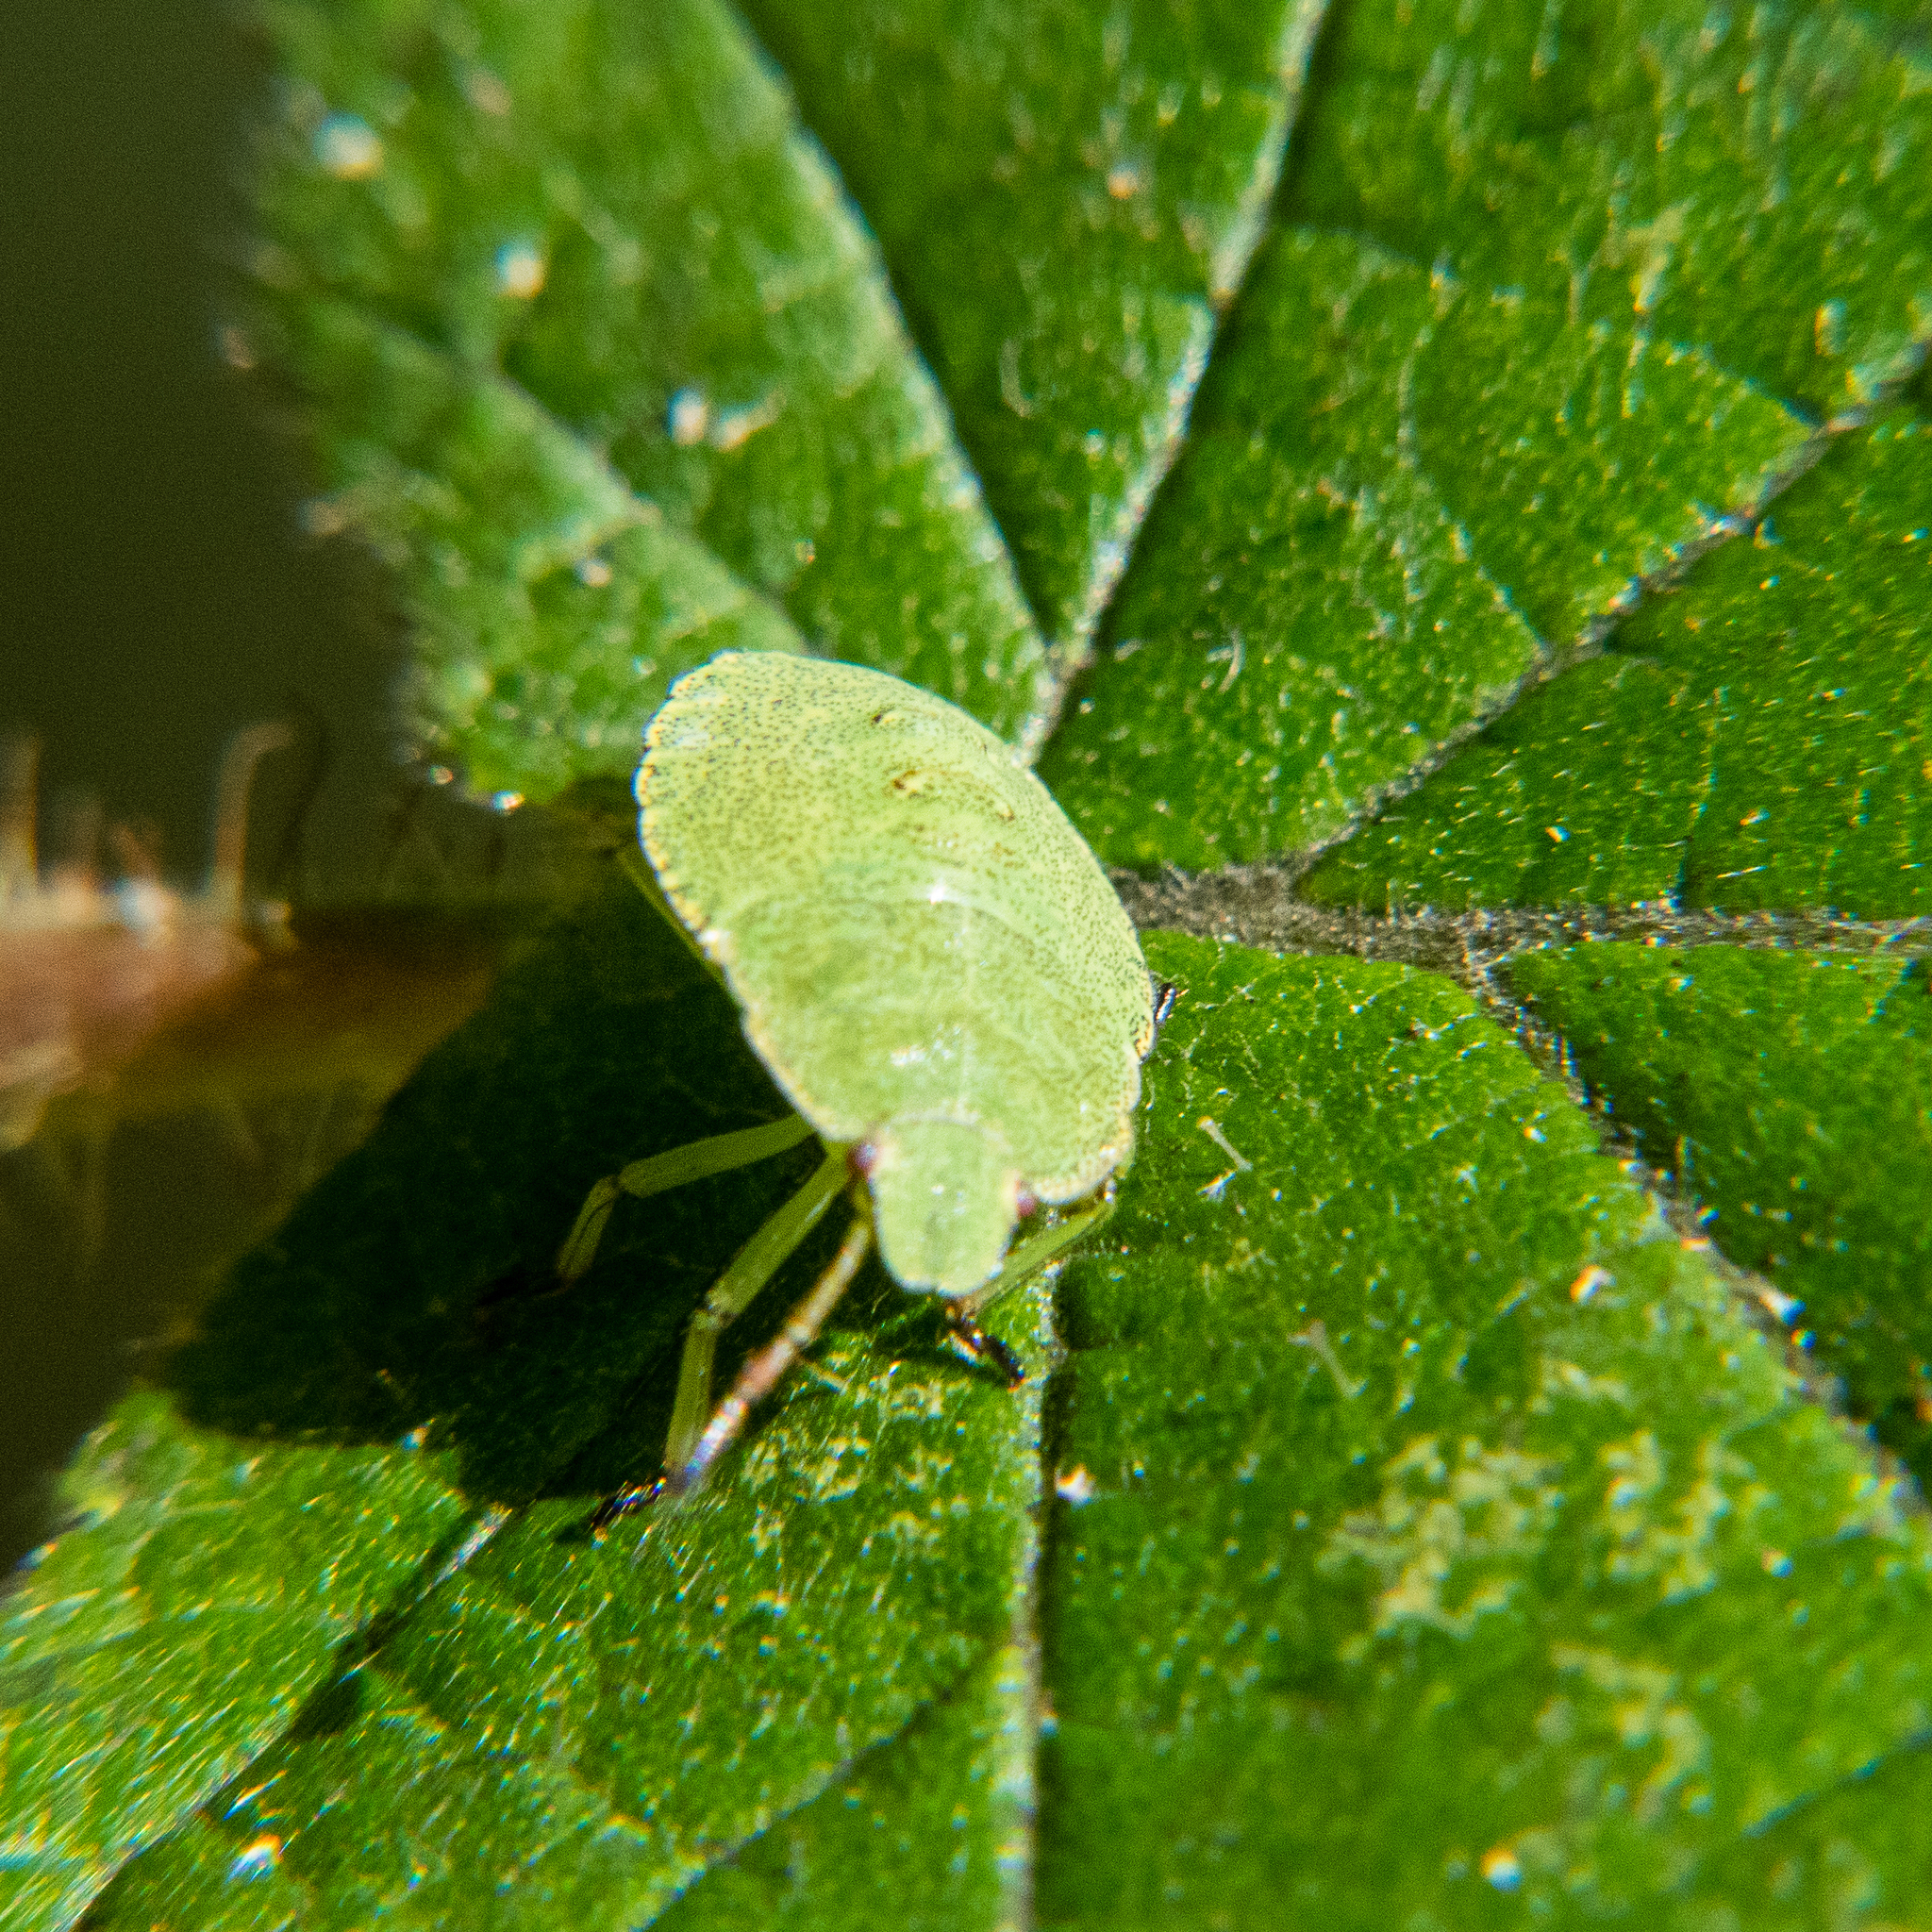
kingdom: Animalia
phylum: Arthropoda
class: Insecta
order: Hemiptera
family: Pentatomidae
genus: Palomena
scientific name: Palomena prasina
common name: Green shieldbug
